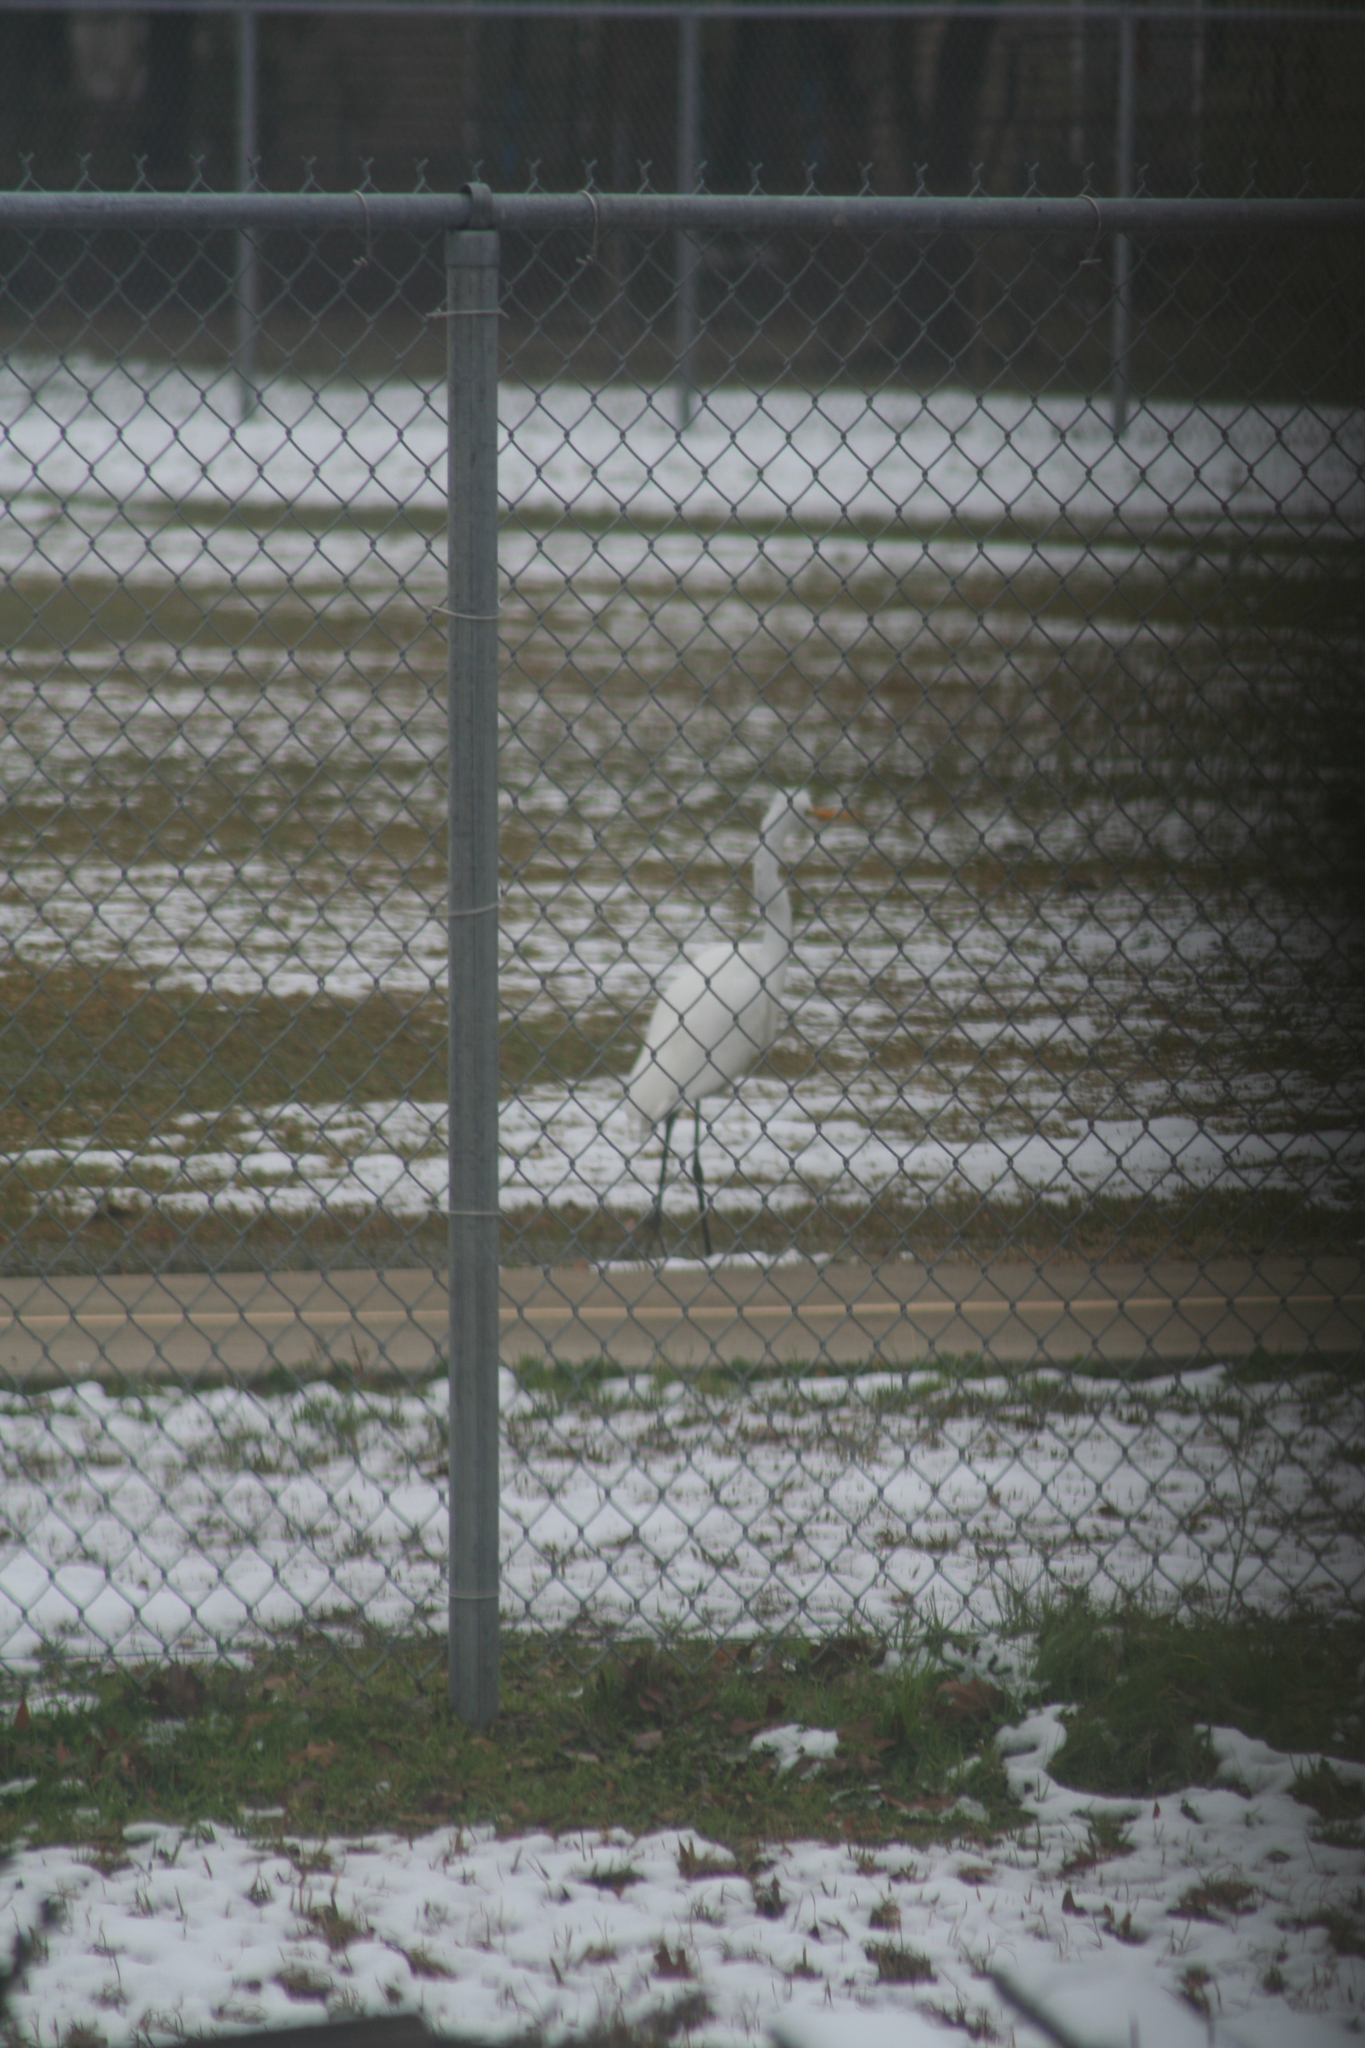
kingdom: Animalia
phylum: Chordata
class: Aves
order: Pelecaniformes
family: Ardeidae
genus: Ardea
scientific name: Ardea alba
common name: Great egret
